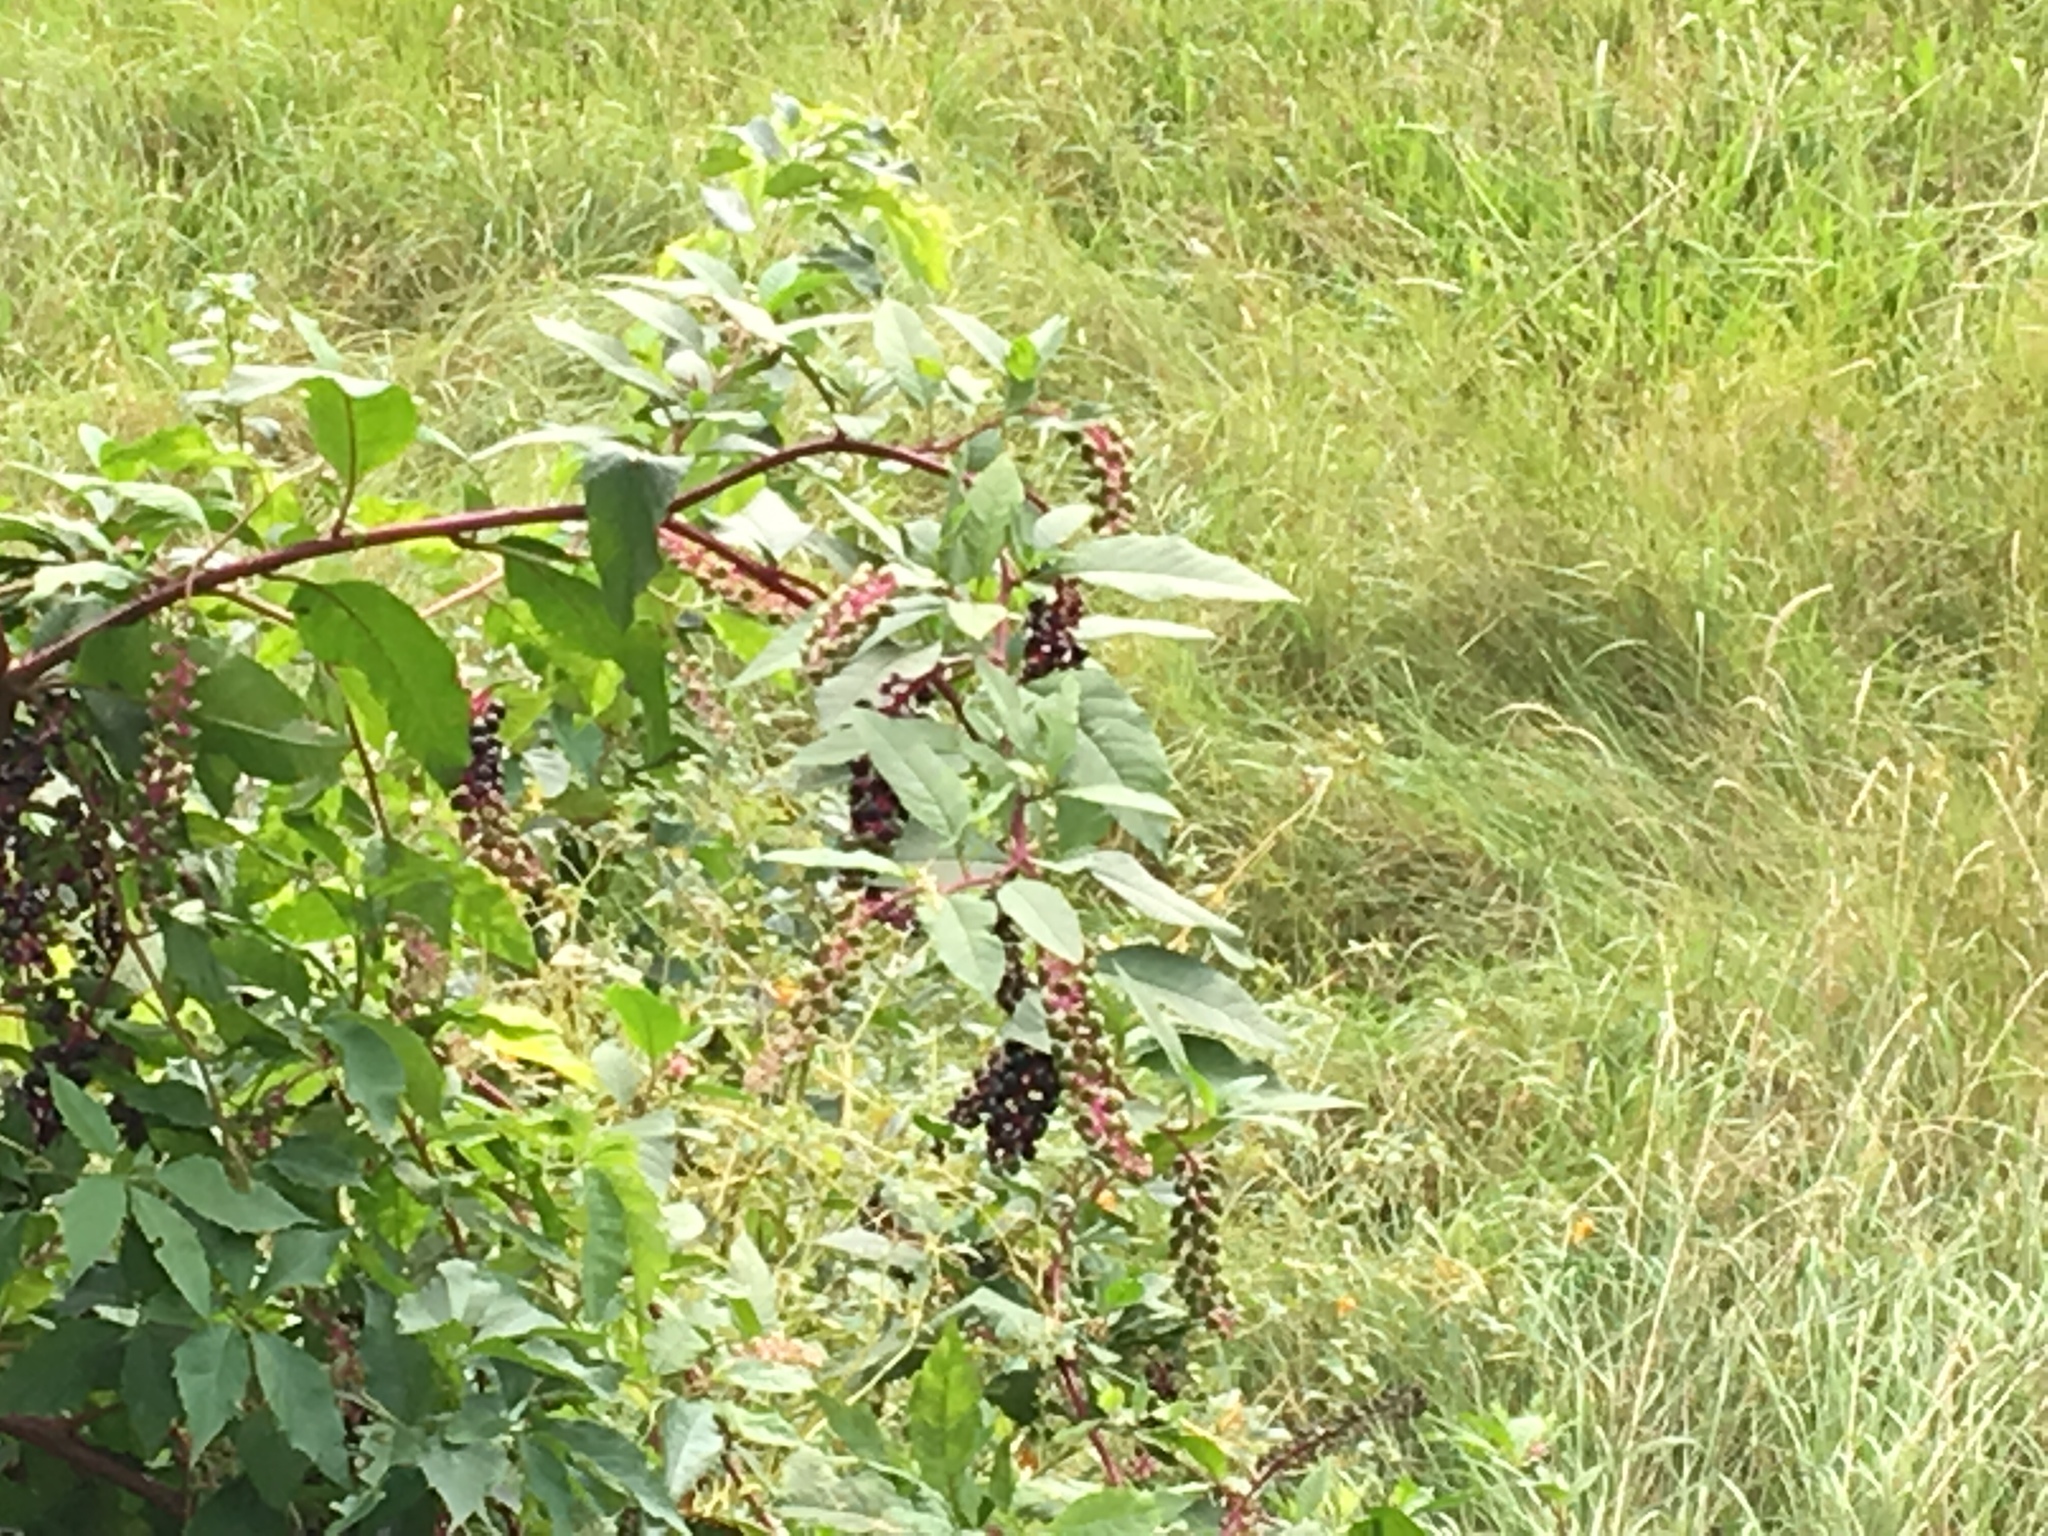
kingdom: Plantae
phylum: Tracheophyta
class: Magnoliopsida
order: Caryophyllales
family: Phytolaccaceae
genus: Phytolacca
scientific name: Phytolacca americana
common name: American pokeweed
